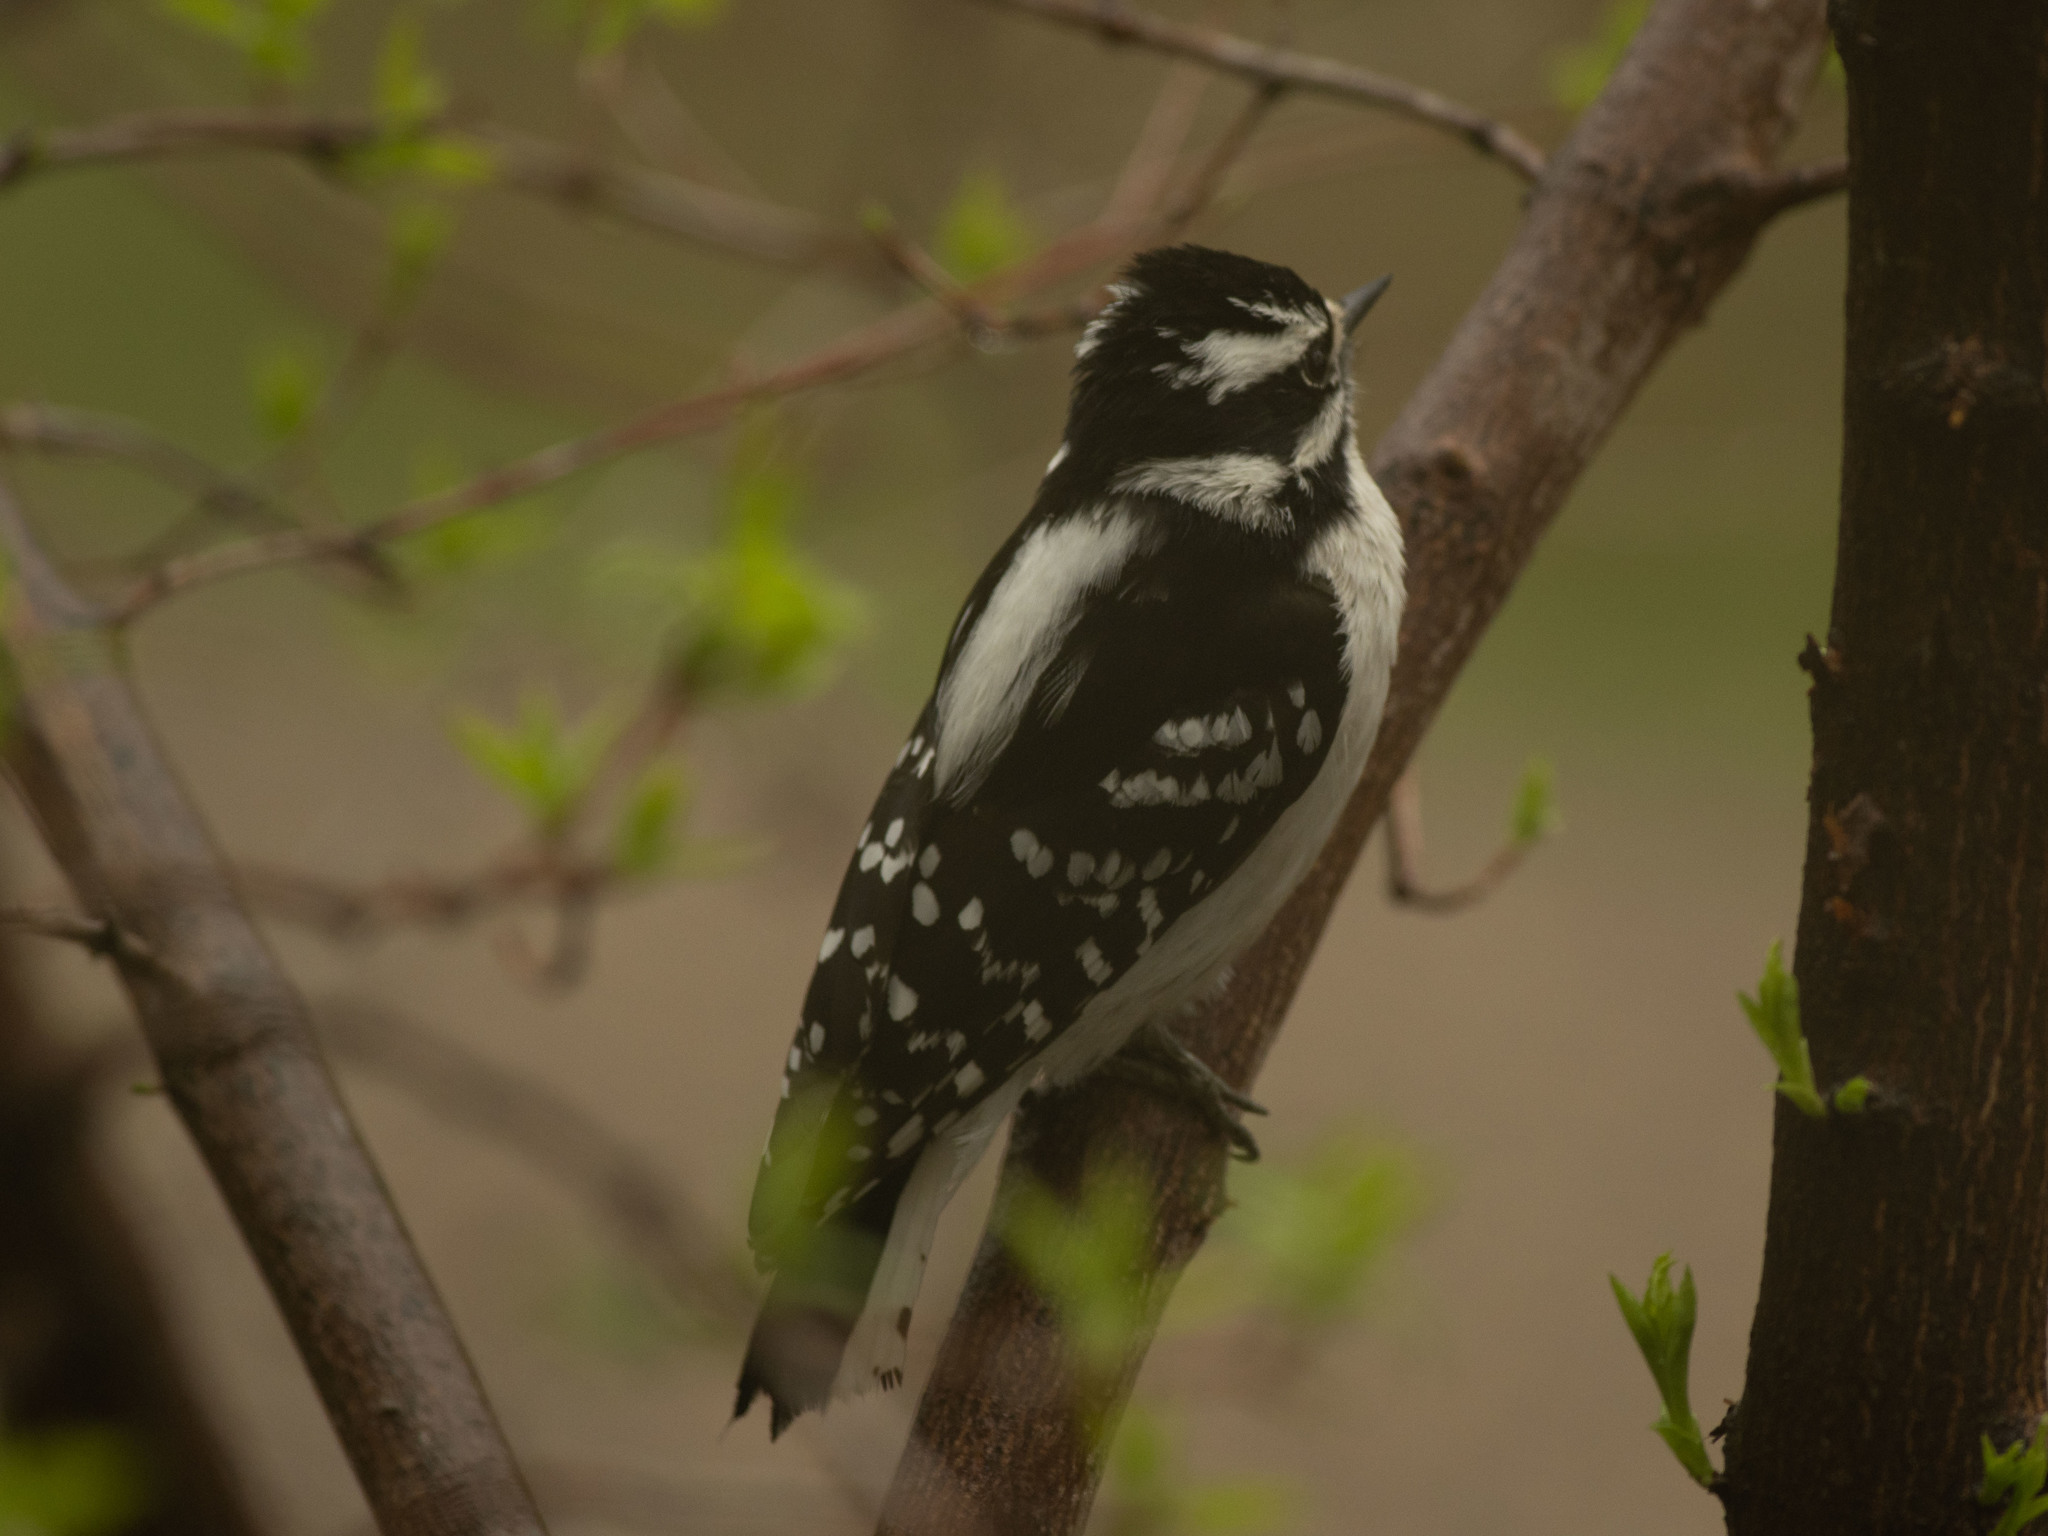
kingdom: Animalia
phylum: Chordata
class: Aves
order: Piciformes
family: Picidae
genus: Dryobates
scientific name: Dryobates pubescens
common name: Downy woodpecker
